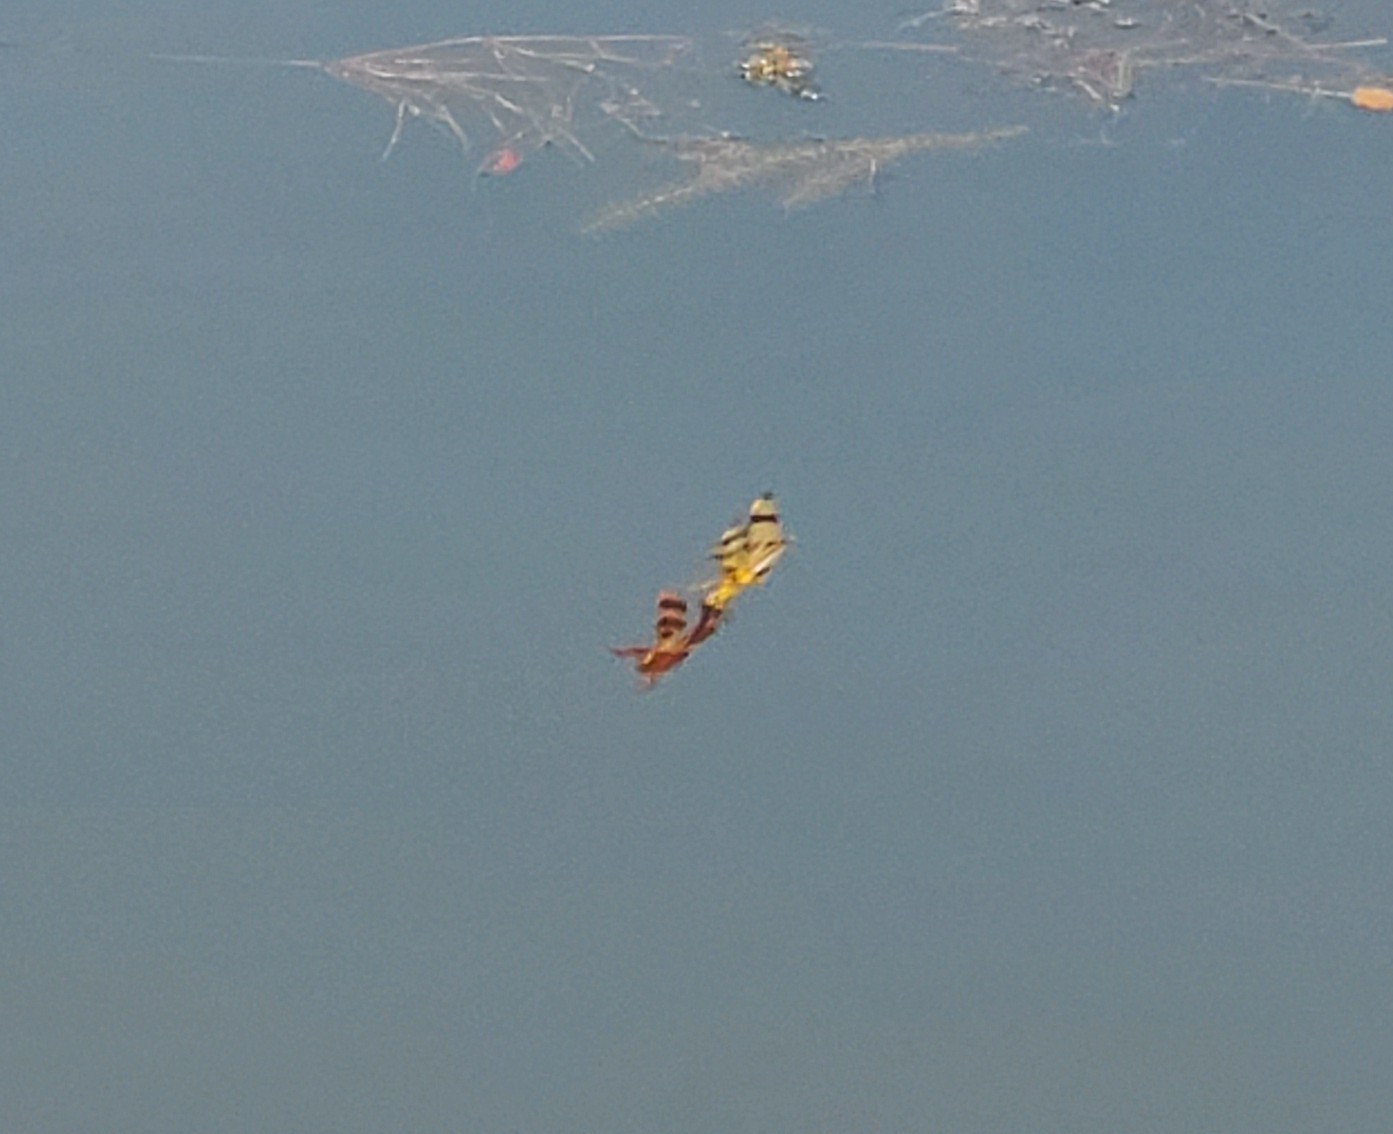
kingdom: Animalia
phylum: Arthropoda
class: Insecta
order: Odonata
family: Libellulidae
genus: Celithemis
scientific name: Celithemis eponina
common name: Halloween pennant
